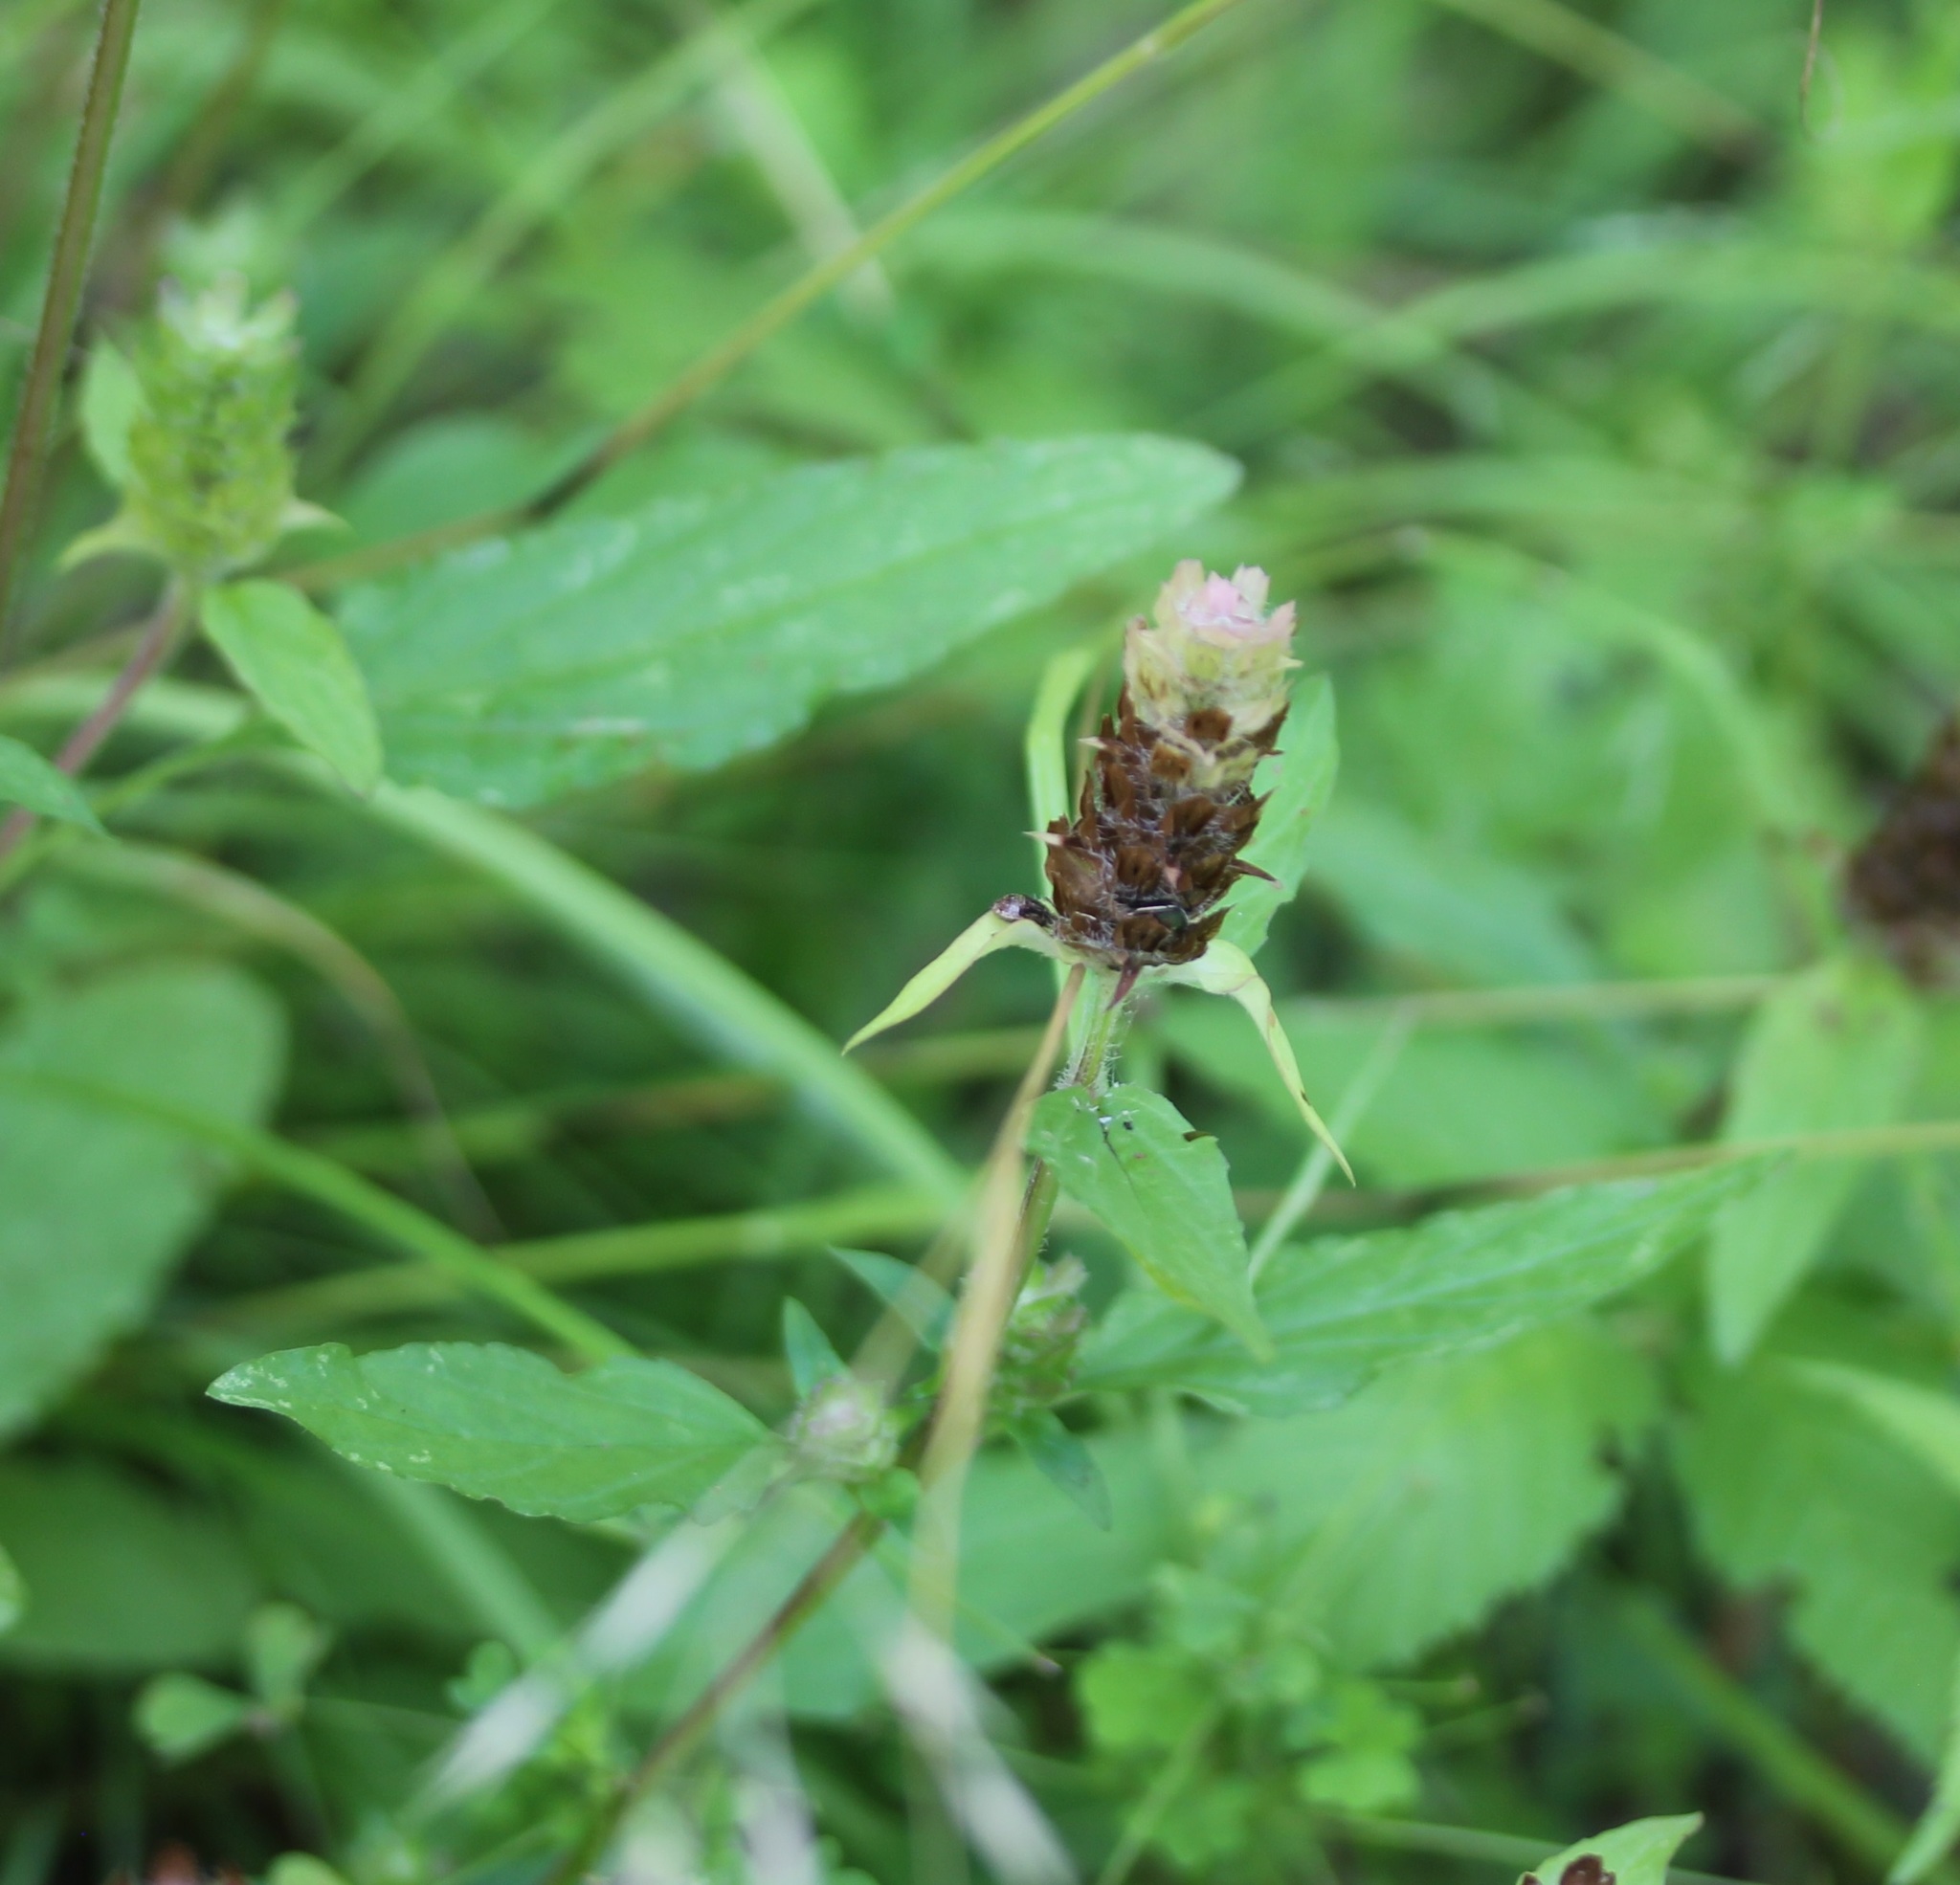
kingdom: Plantae
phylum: Tracheophyta
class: Magnoliopsida
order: Lamiales
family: Lamiaceae
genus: Prunella
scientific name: Prunella vulgaris
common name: Heal-all
